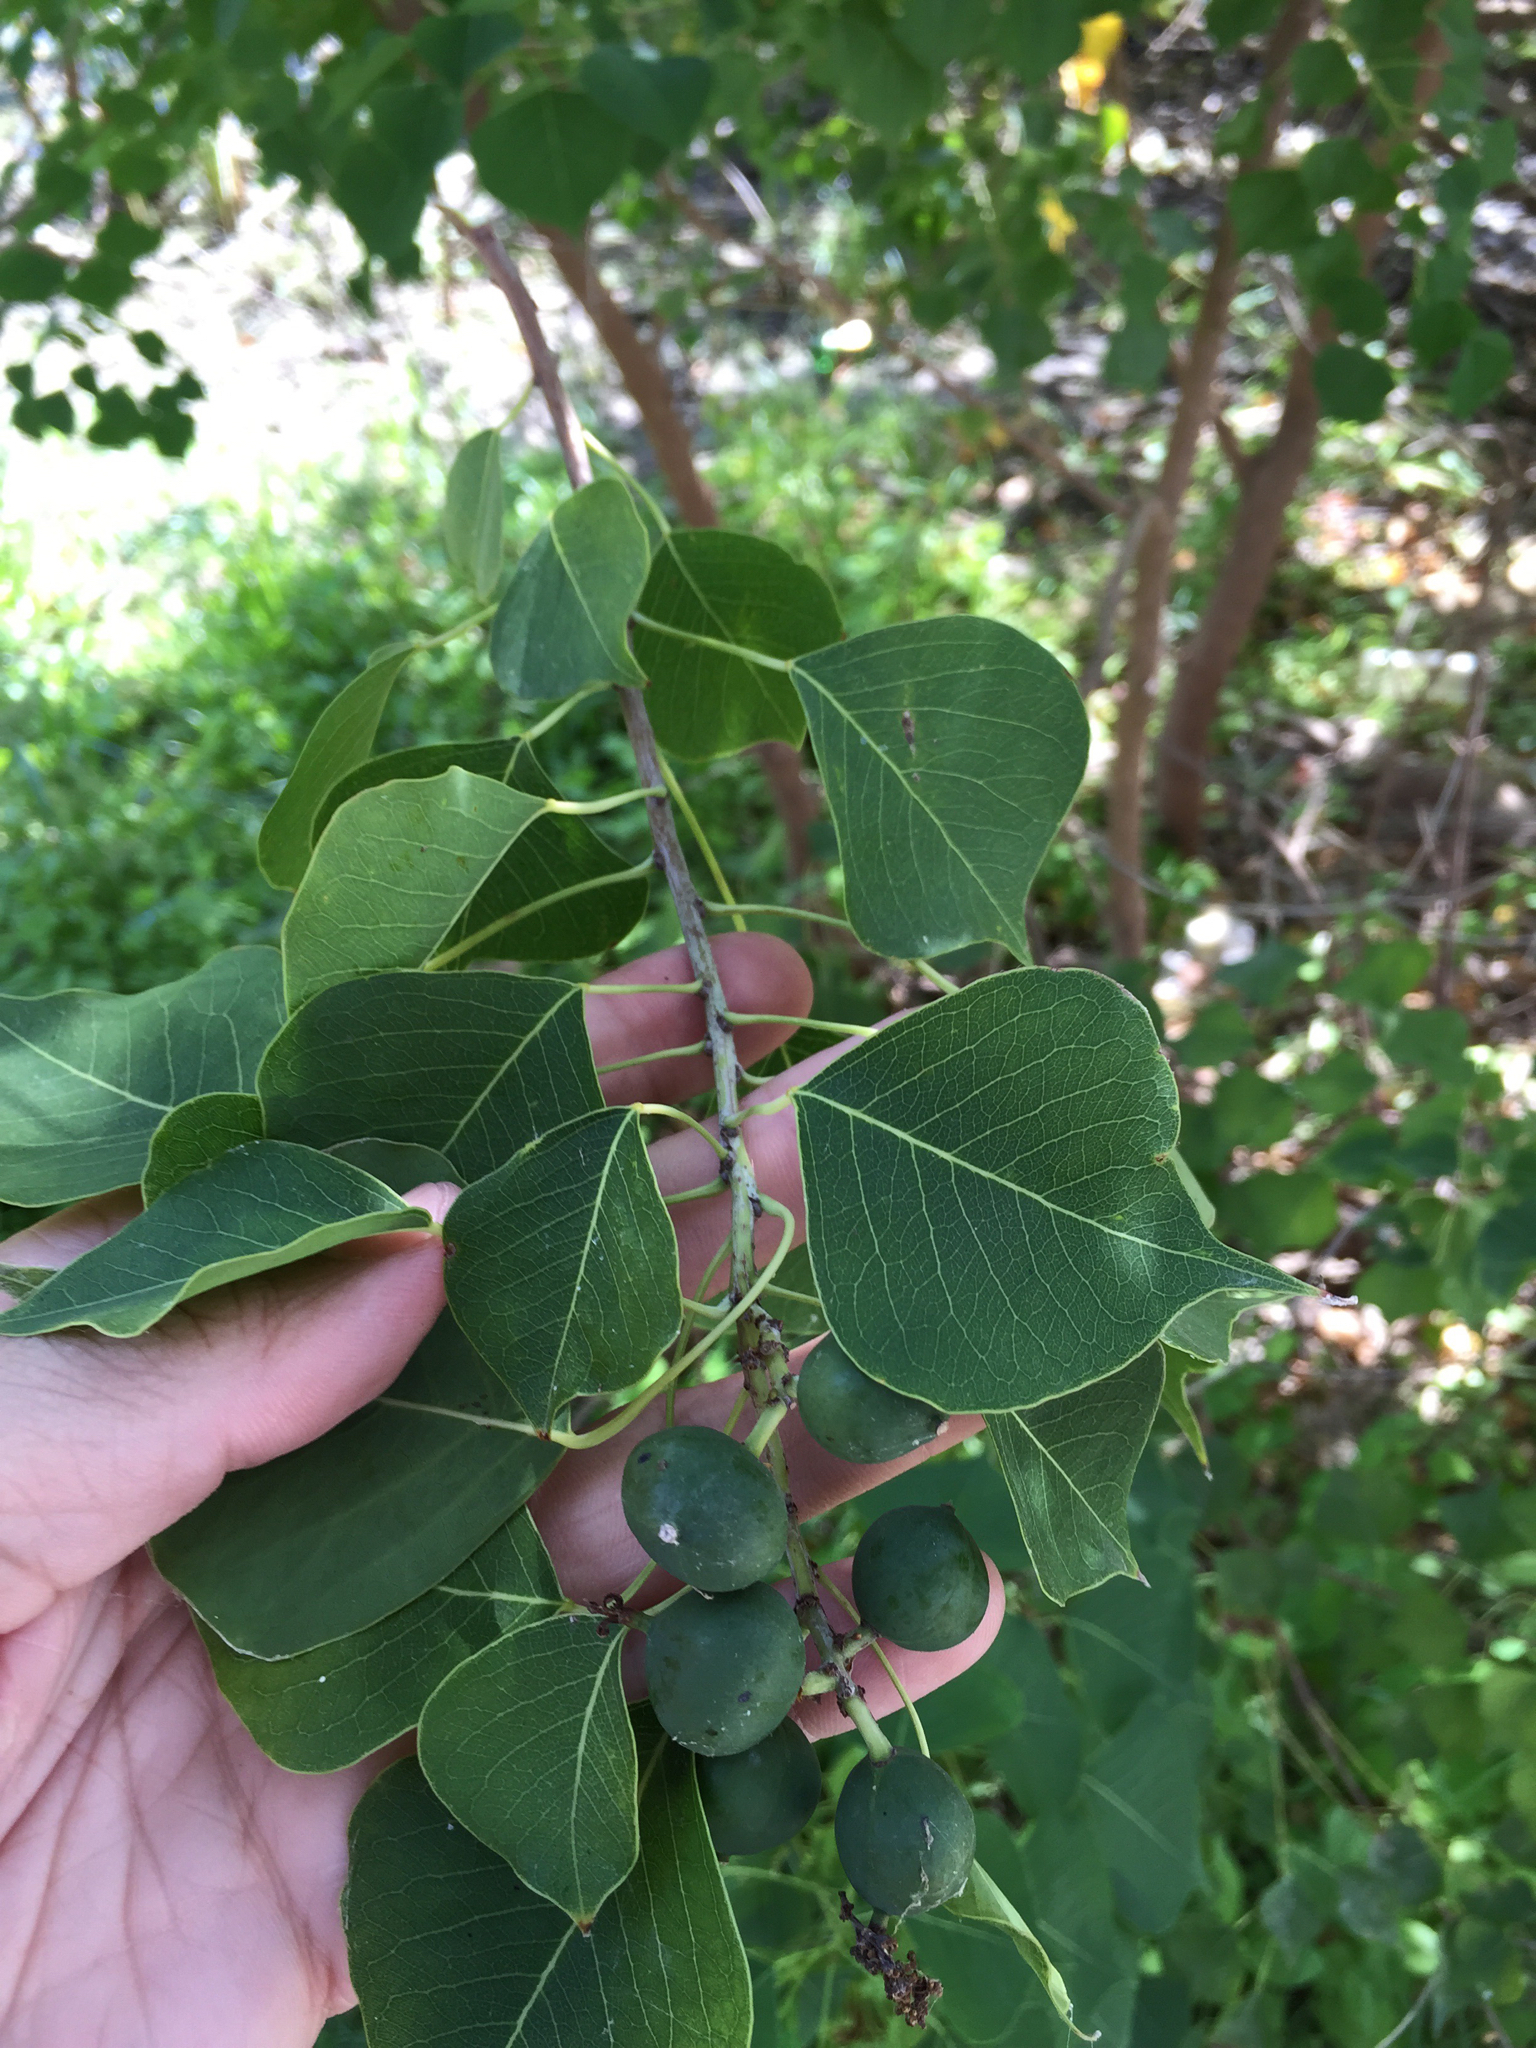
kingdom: Plantae
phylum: Tracheophyta
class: Magnoliopsida
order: Malpighiales
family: Euphorbiaceae
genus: Triadica
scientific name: Triadica sebifera
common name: Chinese tallow
